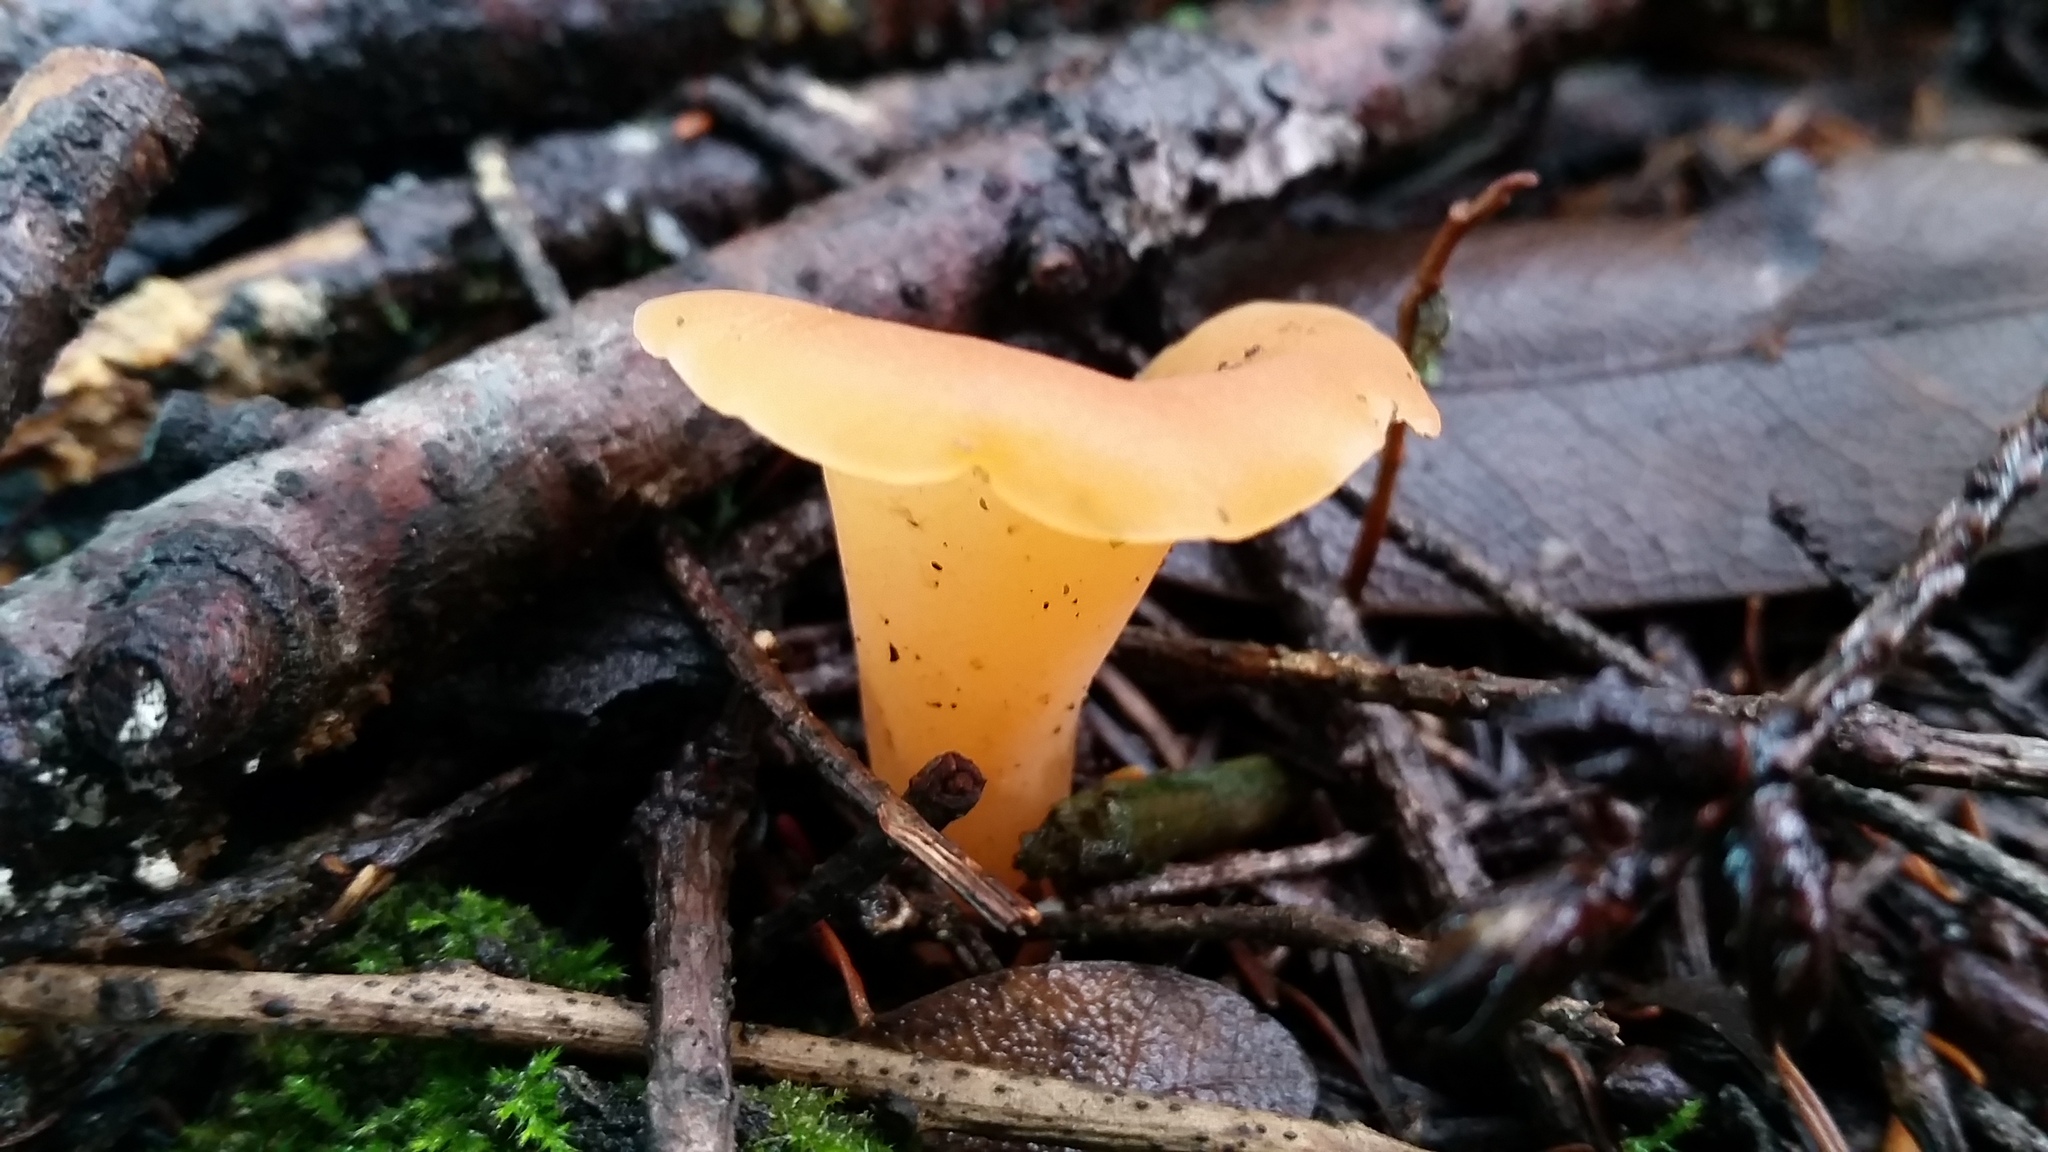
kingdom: Fungi
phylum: Basidiomycota
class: Agaricomycetes
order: Auriculariales
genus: Guepinia
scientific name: Guepinia helvelloides
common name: Salmon salad
